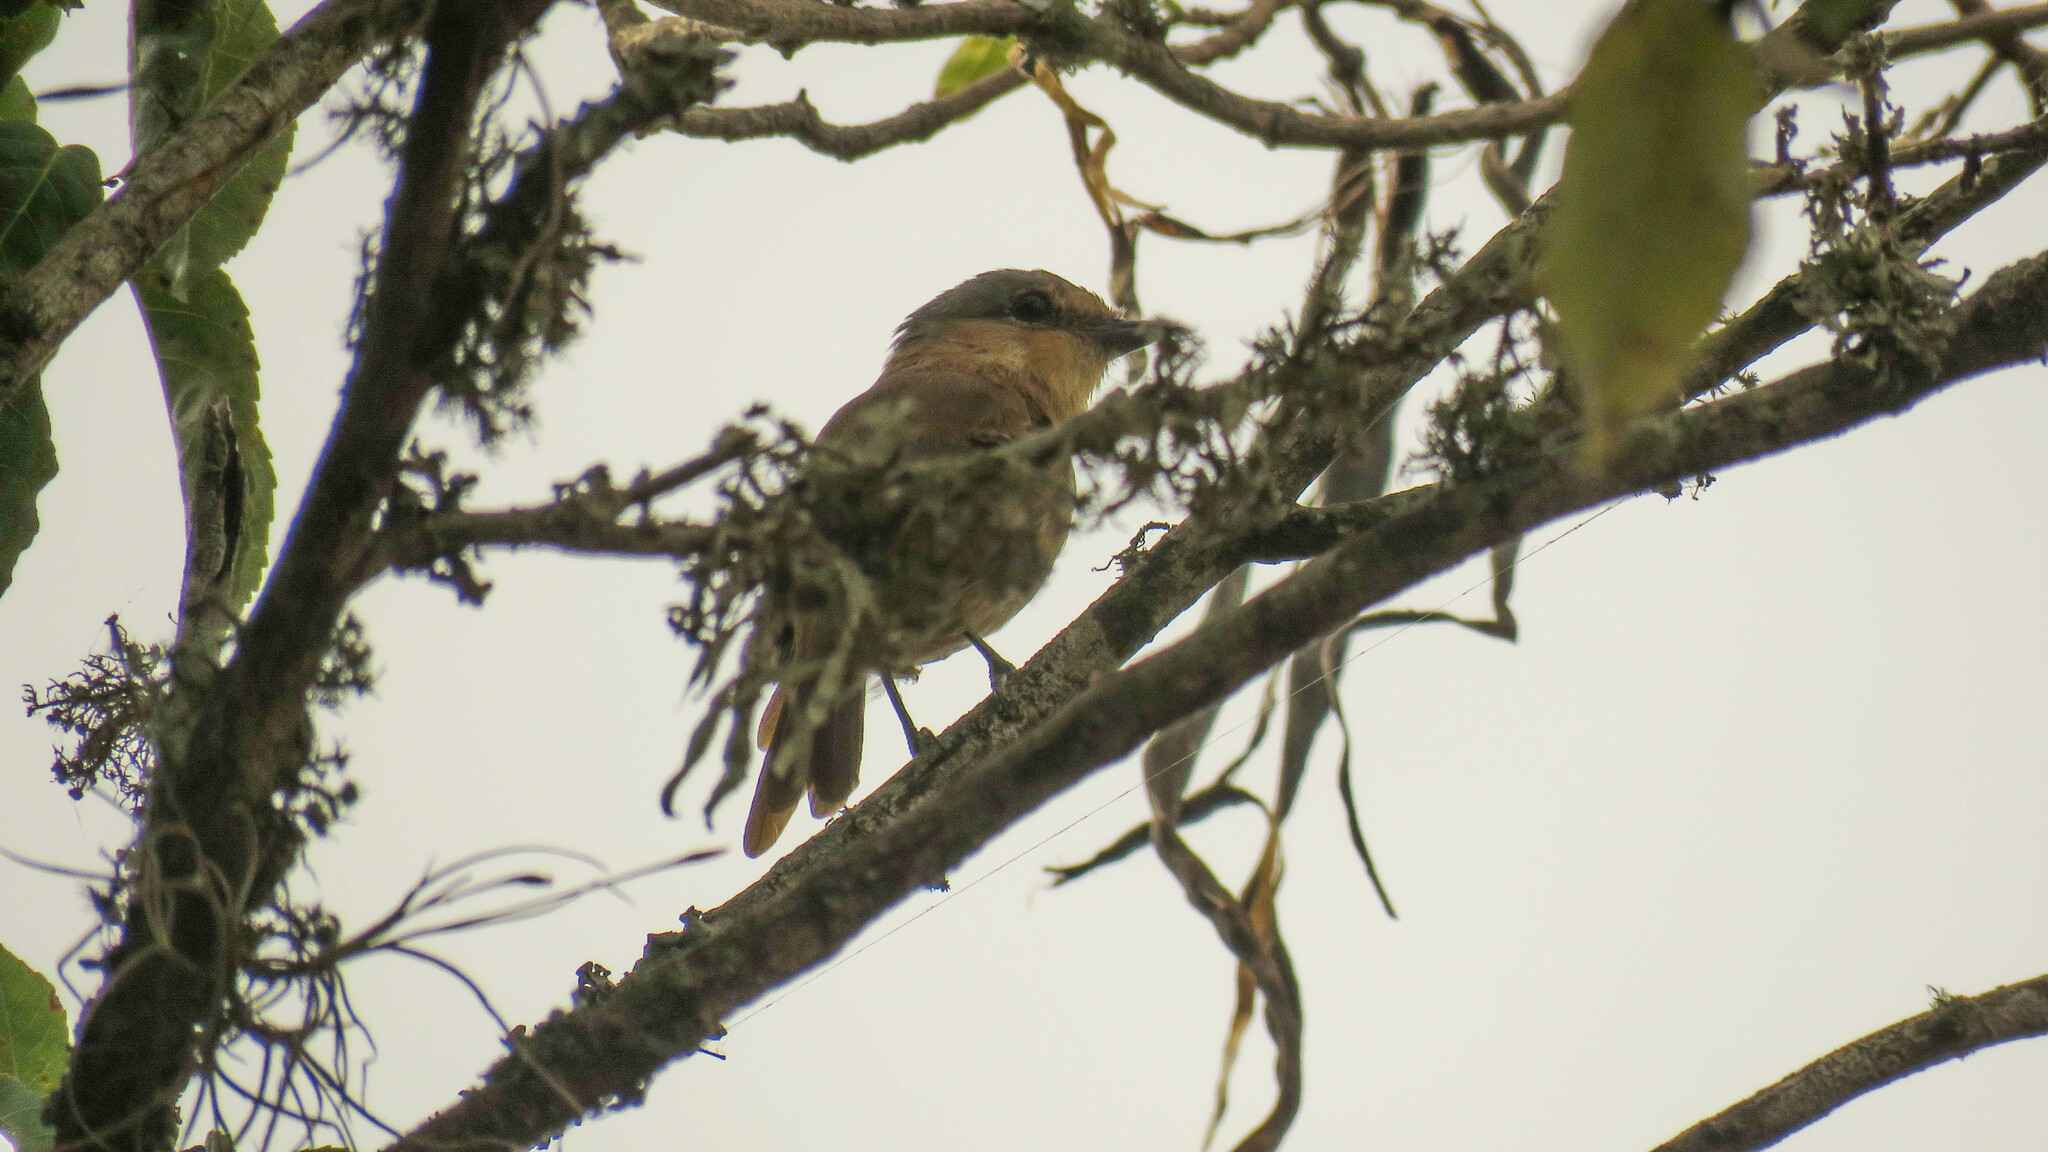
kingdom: Animalia
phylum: Chordata
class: Aves
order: Passeriformes
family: Cotingidae
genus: Pachyramphus
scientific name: Pachyramphus castaneus
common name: Chestnut-crowned becard
